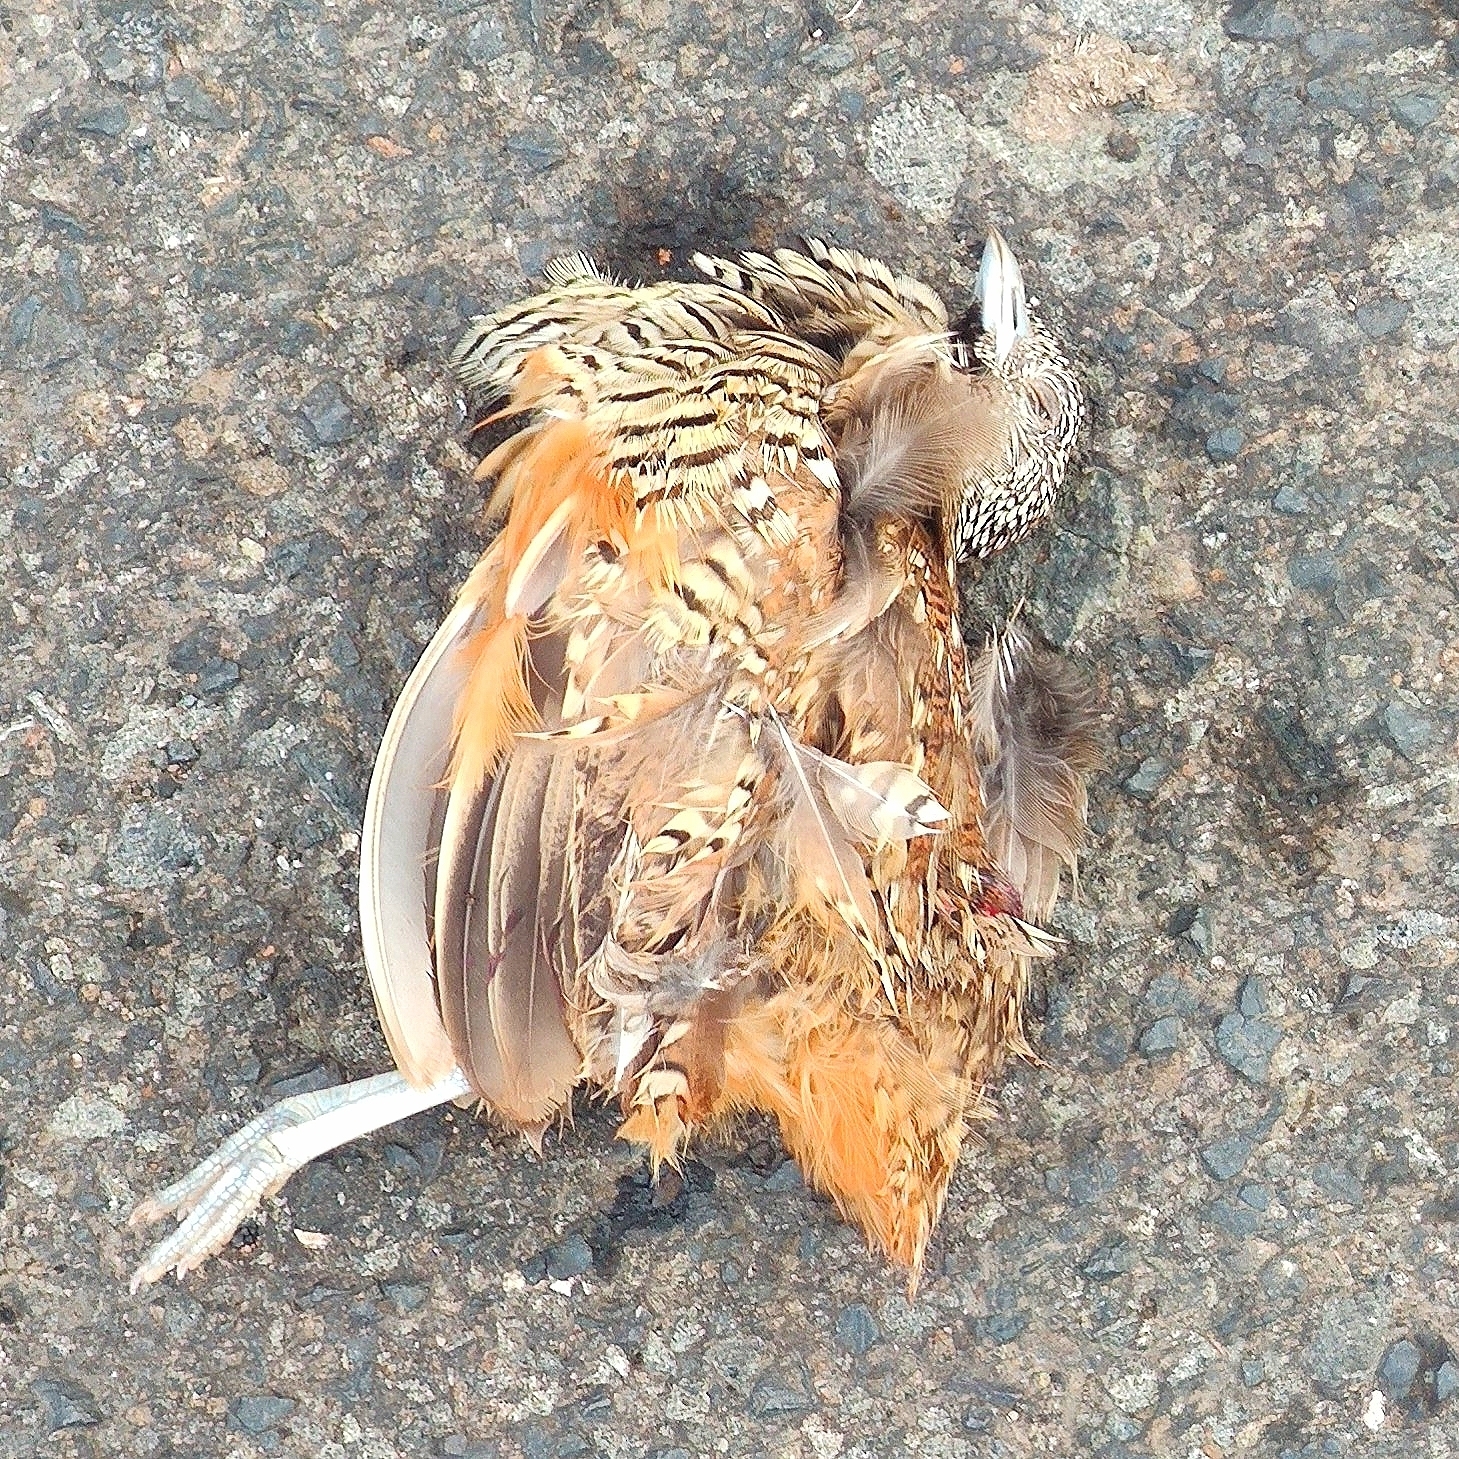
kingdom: Animalia
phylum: Chordata
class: Aves
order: Charadriiformes
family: Turnicidae
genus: Turnix
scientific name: Turnix suscitator
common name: Barred buttonquail
